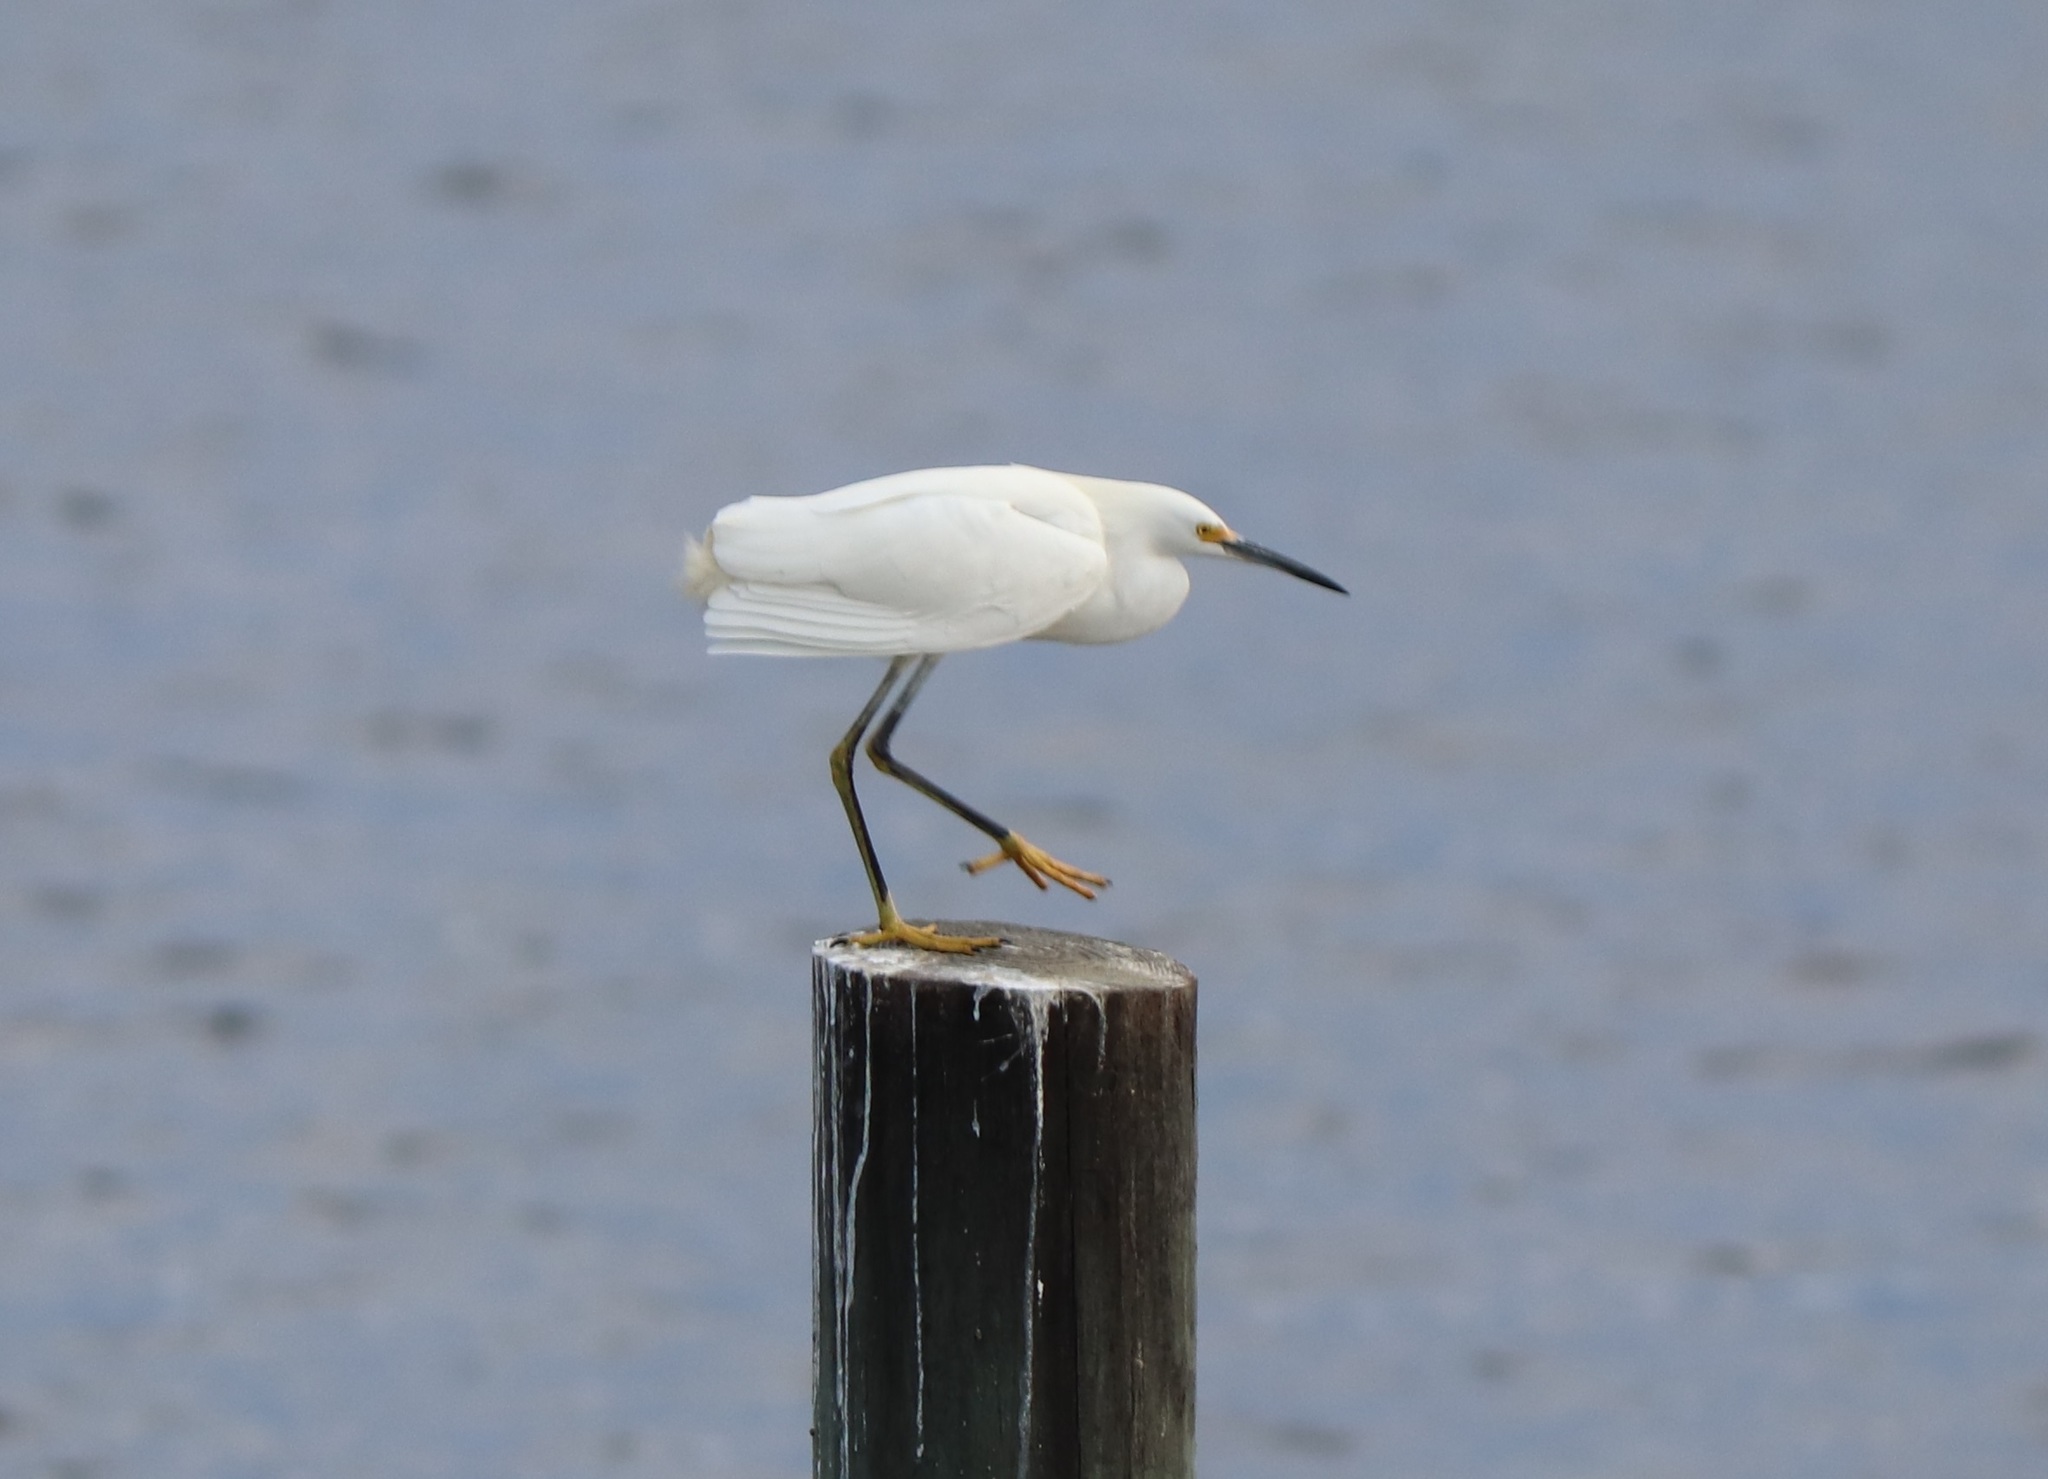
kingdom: Animalia
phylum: Chordata
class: Aves
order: Pelecaniformes
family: Ardeidae
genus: Egretta
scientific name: Egretta thula
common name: Snowy egret
